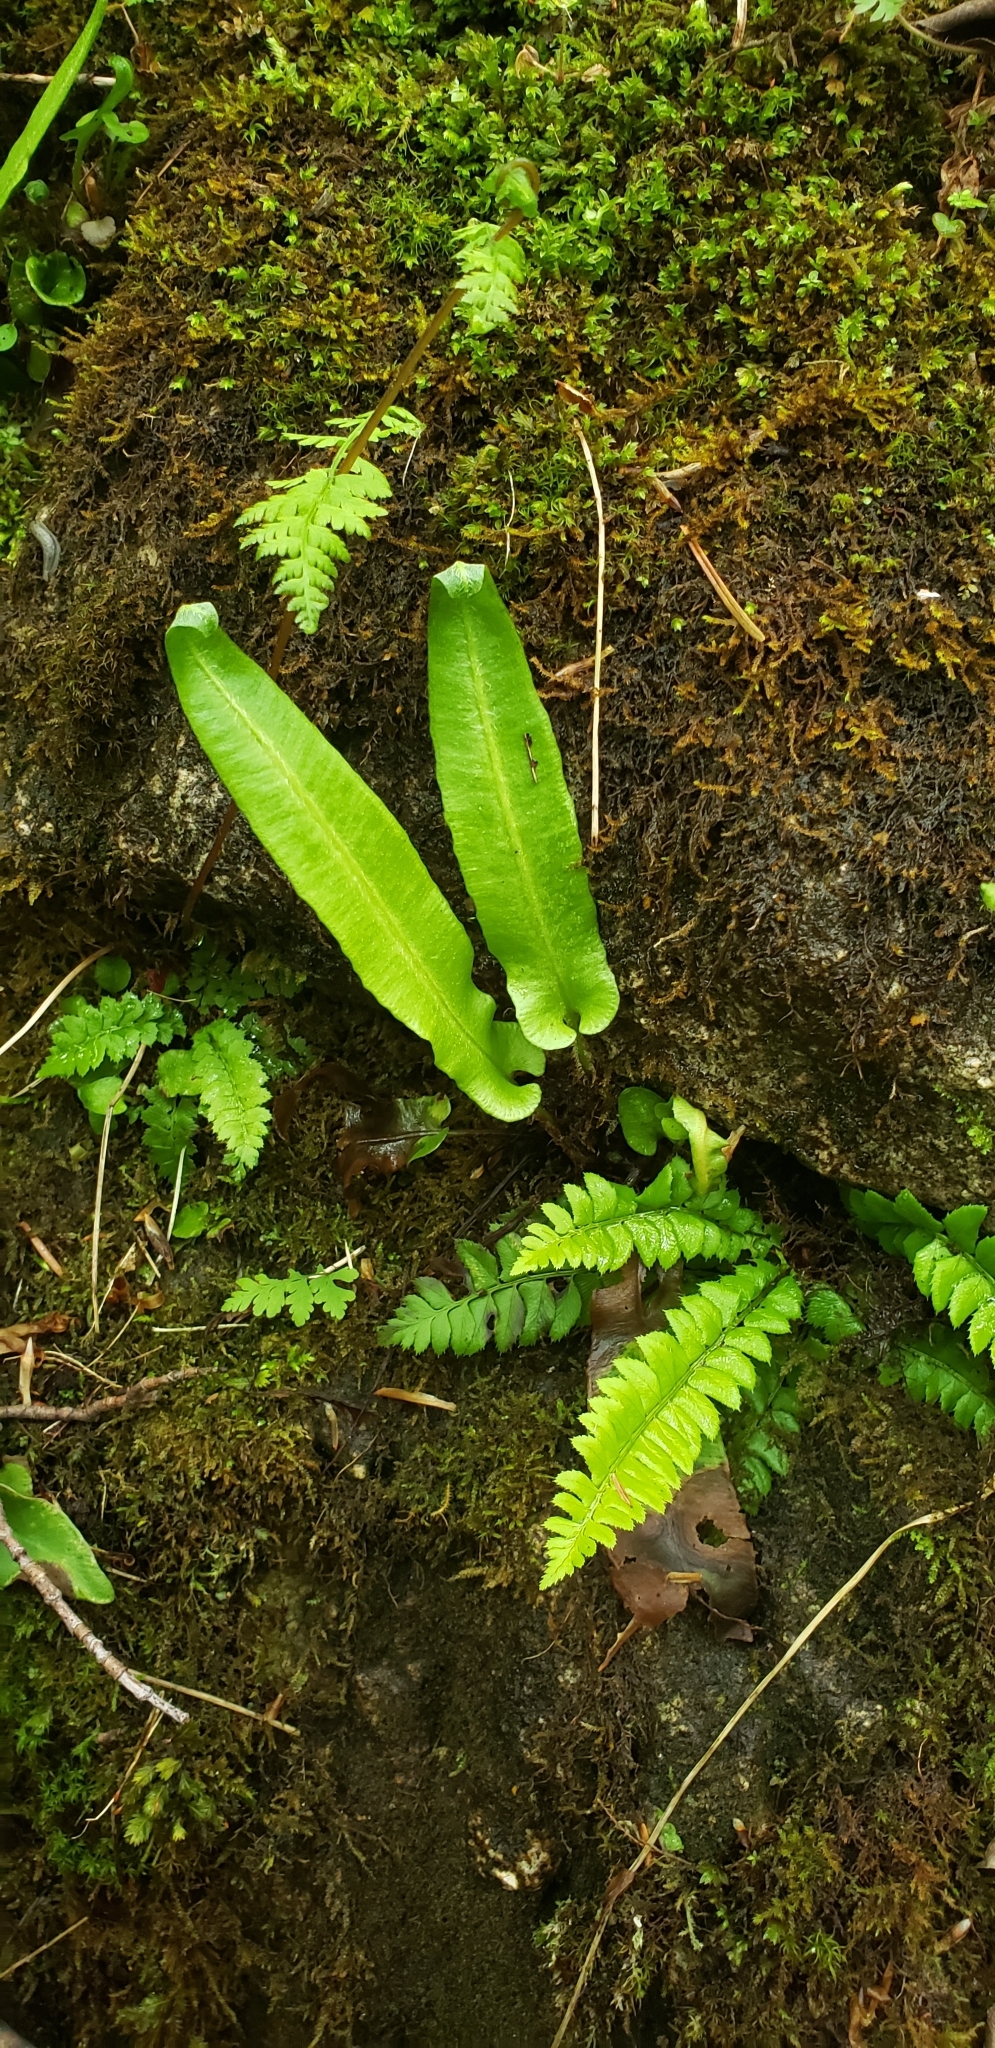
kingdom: Plantae
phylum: Tracheophyta
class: Polypodiopsida
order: Polypodiales
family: Aspleniaceae
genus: Asplenium
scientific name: Asplenium scolopendrium
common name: Hart's-tongue fern
